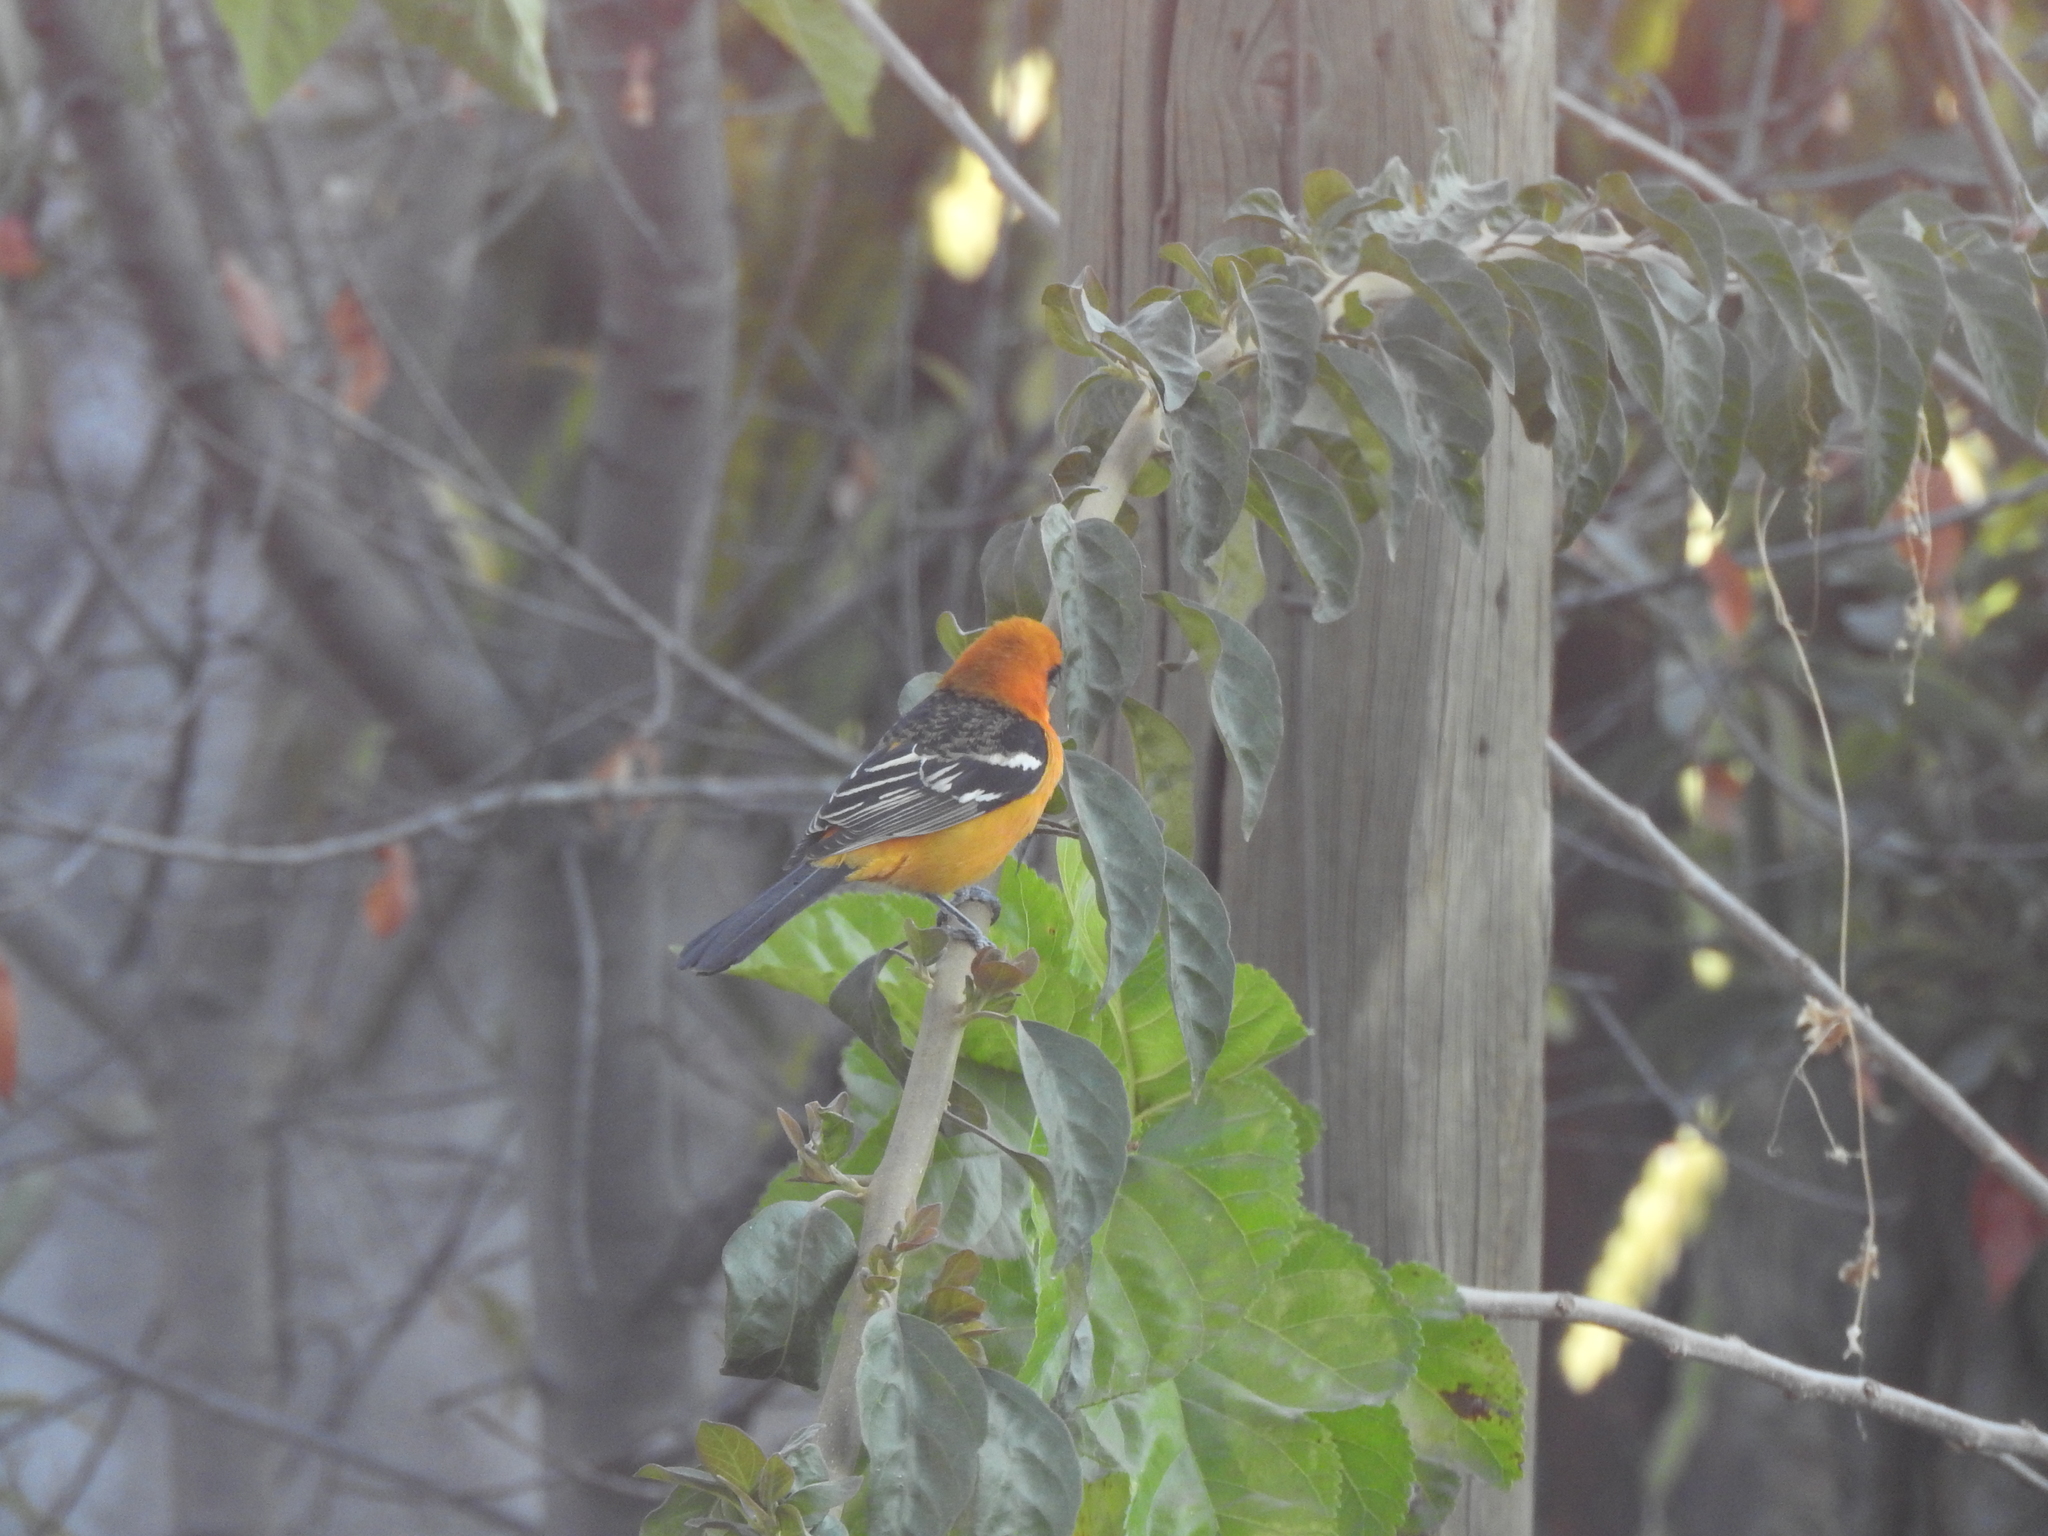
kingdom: Animalia
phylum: Chordata
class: Aves
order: Passeriformes
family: Icteridae
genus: Icterus
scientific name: Icterus cucullatus
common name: Hooded oriole
